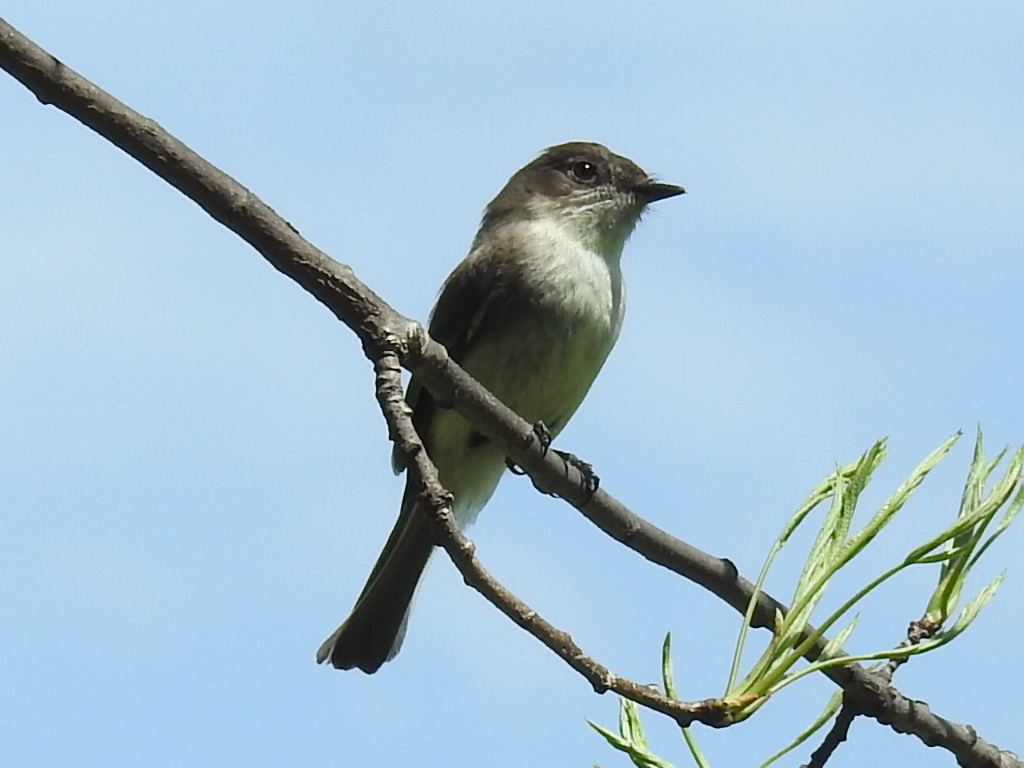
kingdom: Animalia
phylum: Chordata
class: Aves
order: Passeriformes
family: Tyrannidae
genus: Sayornis
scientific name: Sayornis phoebe
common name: Eastern phoebe
